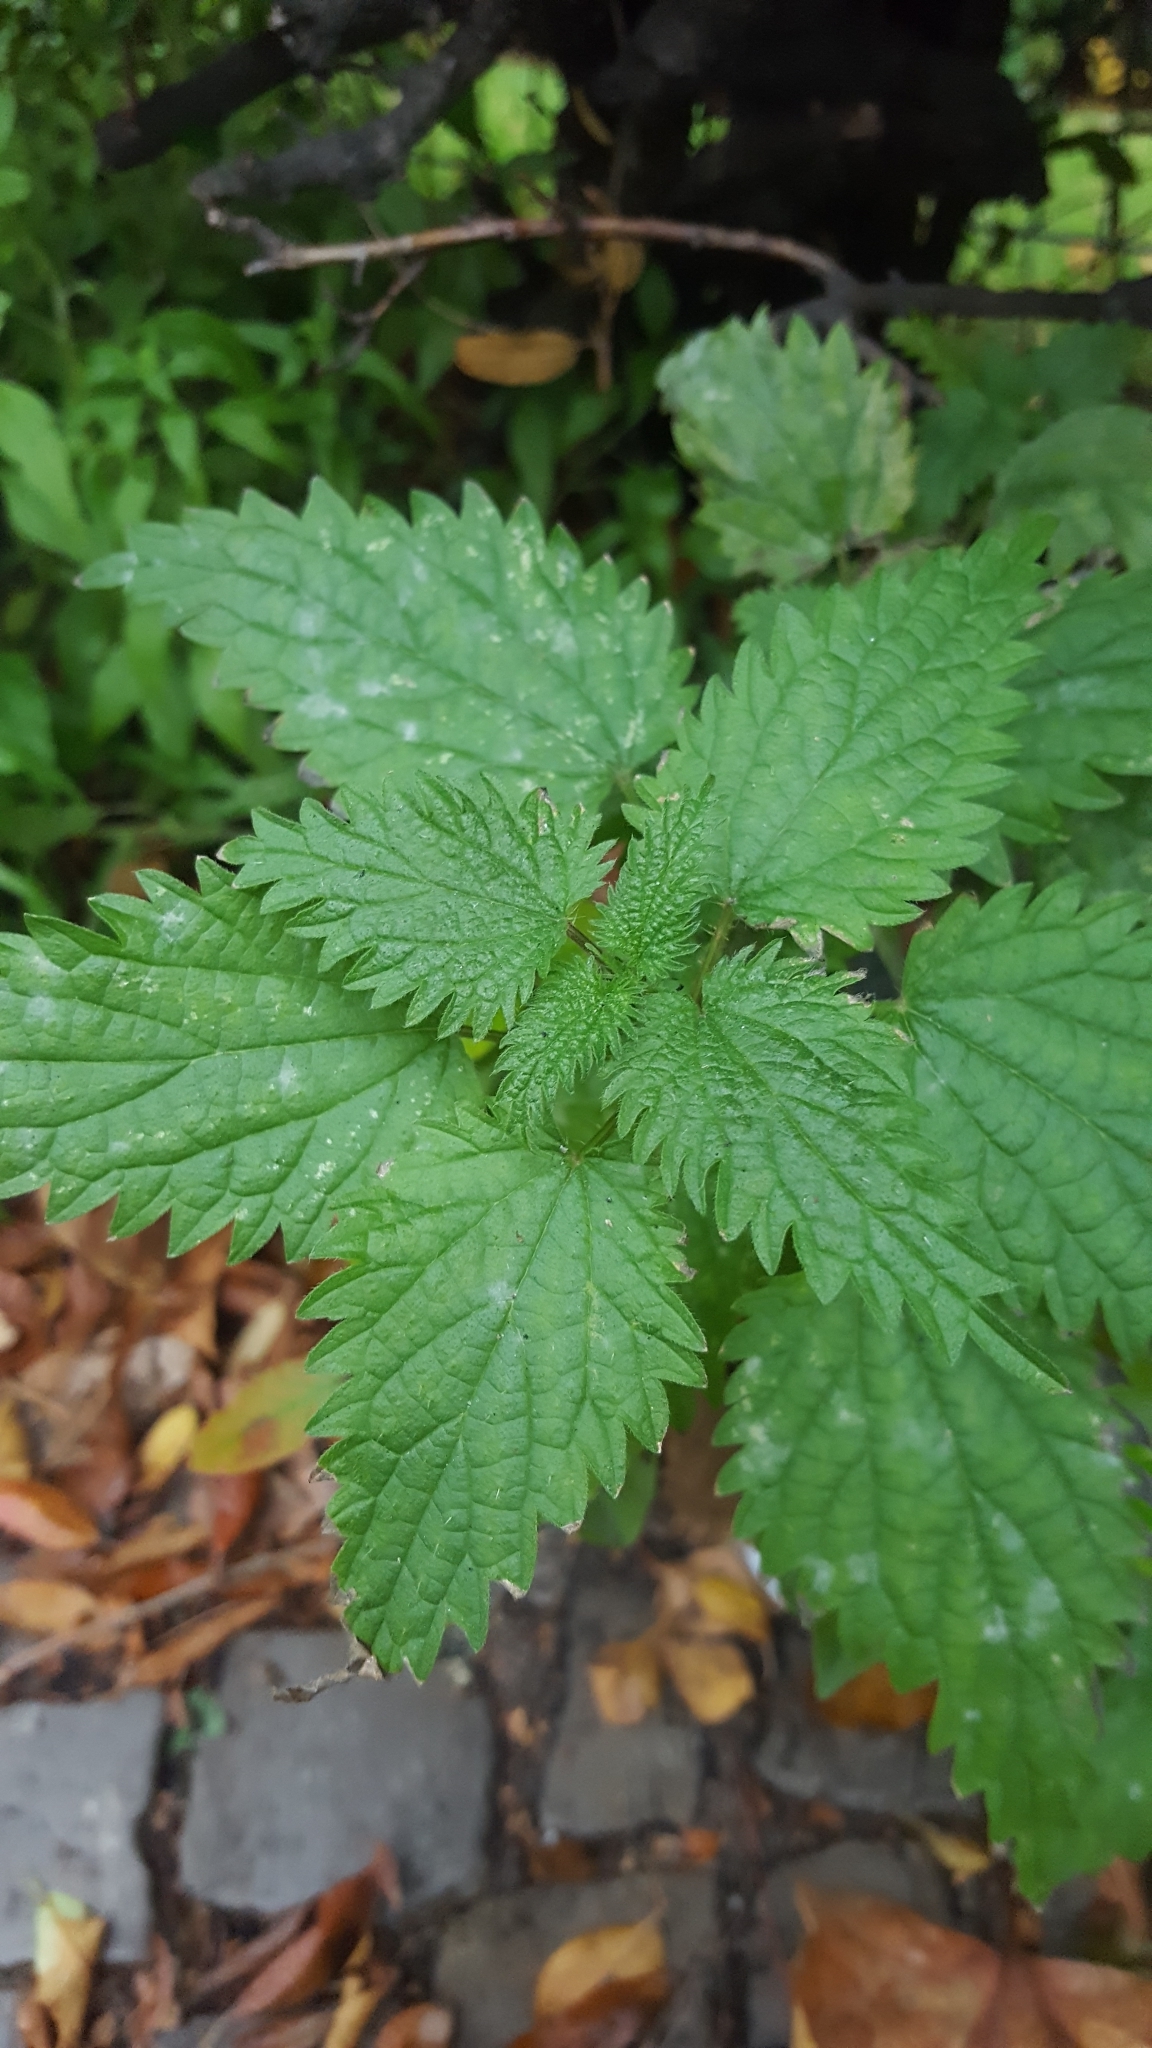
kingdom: Plantae
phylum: Tracheophyta
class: Magnoliopsida
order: Rosales
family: Urticaceae
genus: Urtica
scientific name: Urtica dioica
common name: Common nettle
